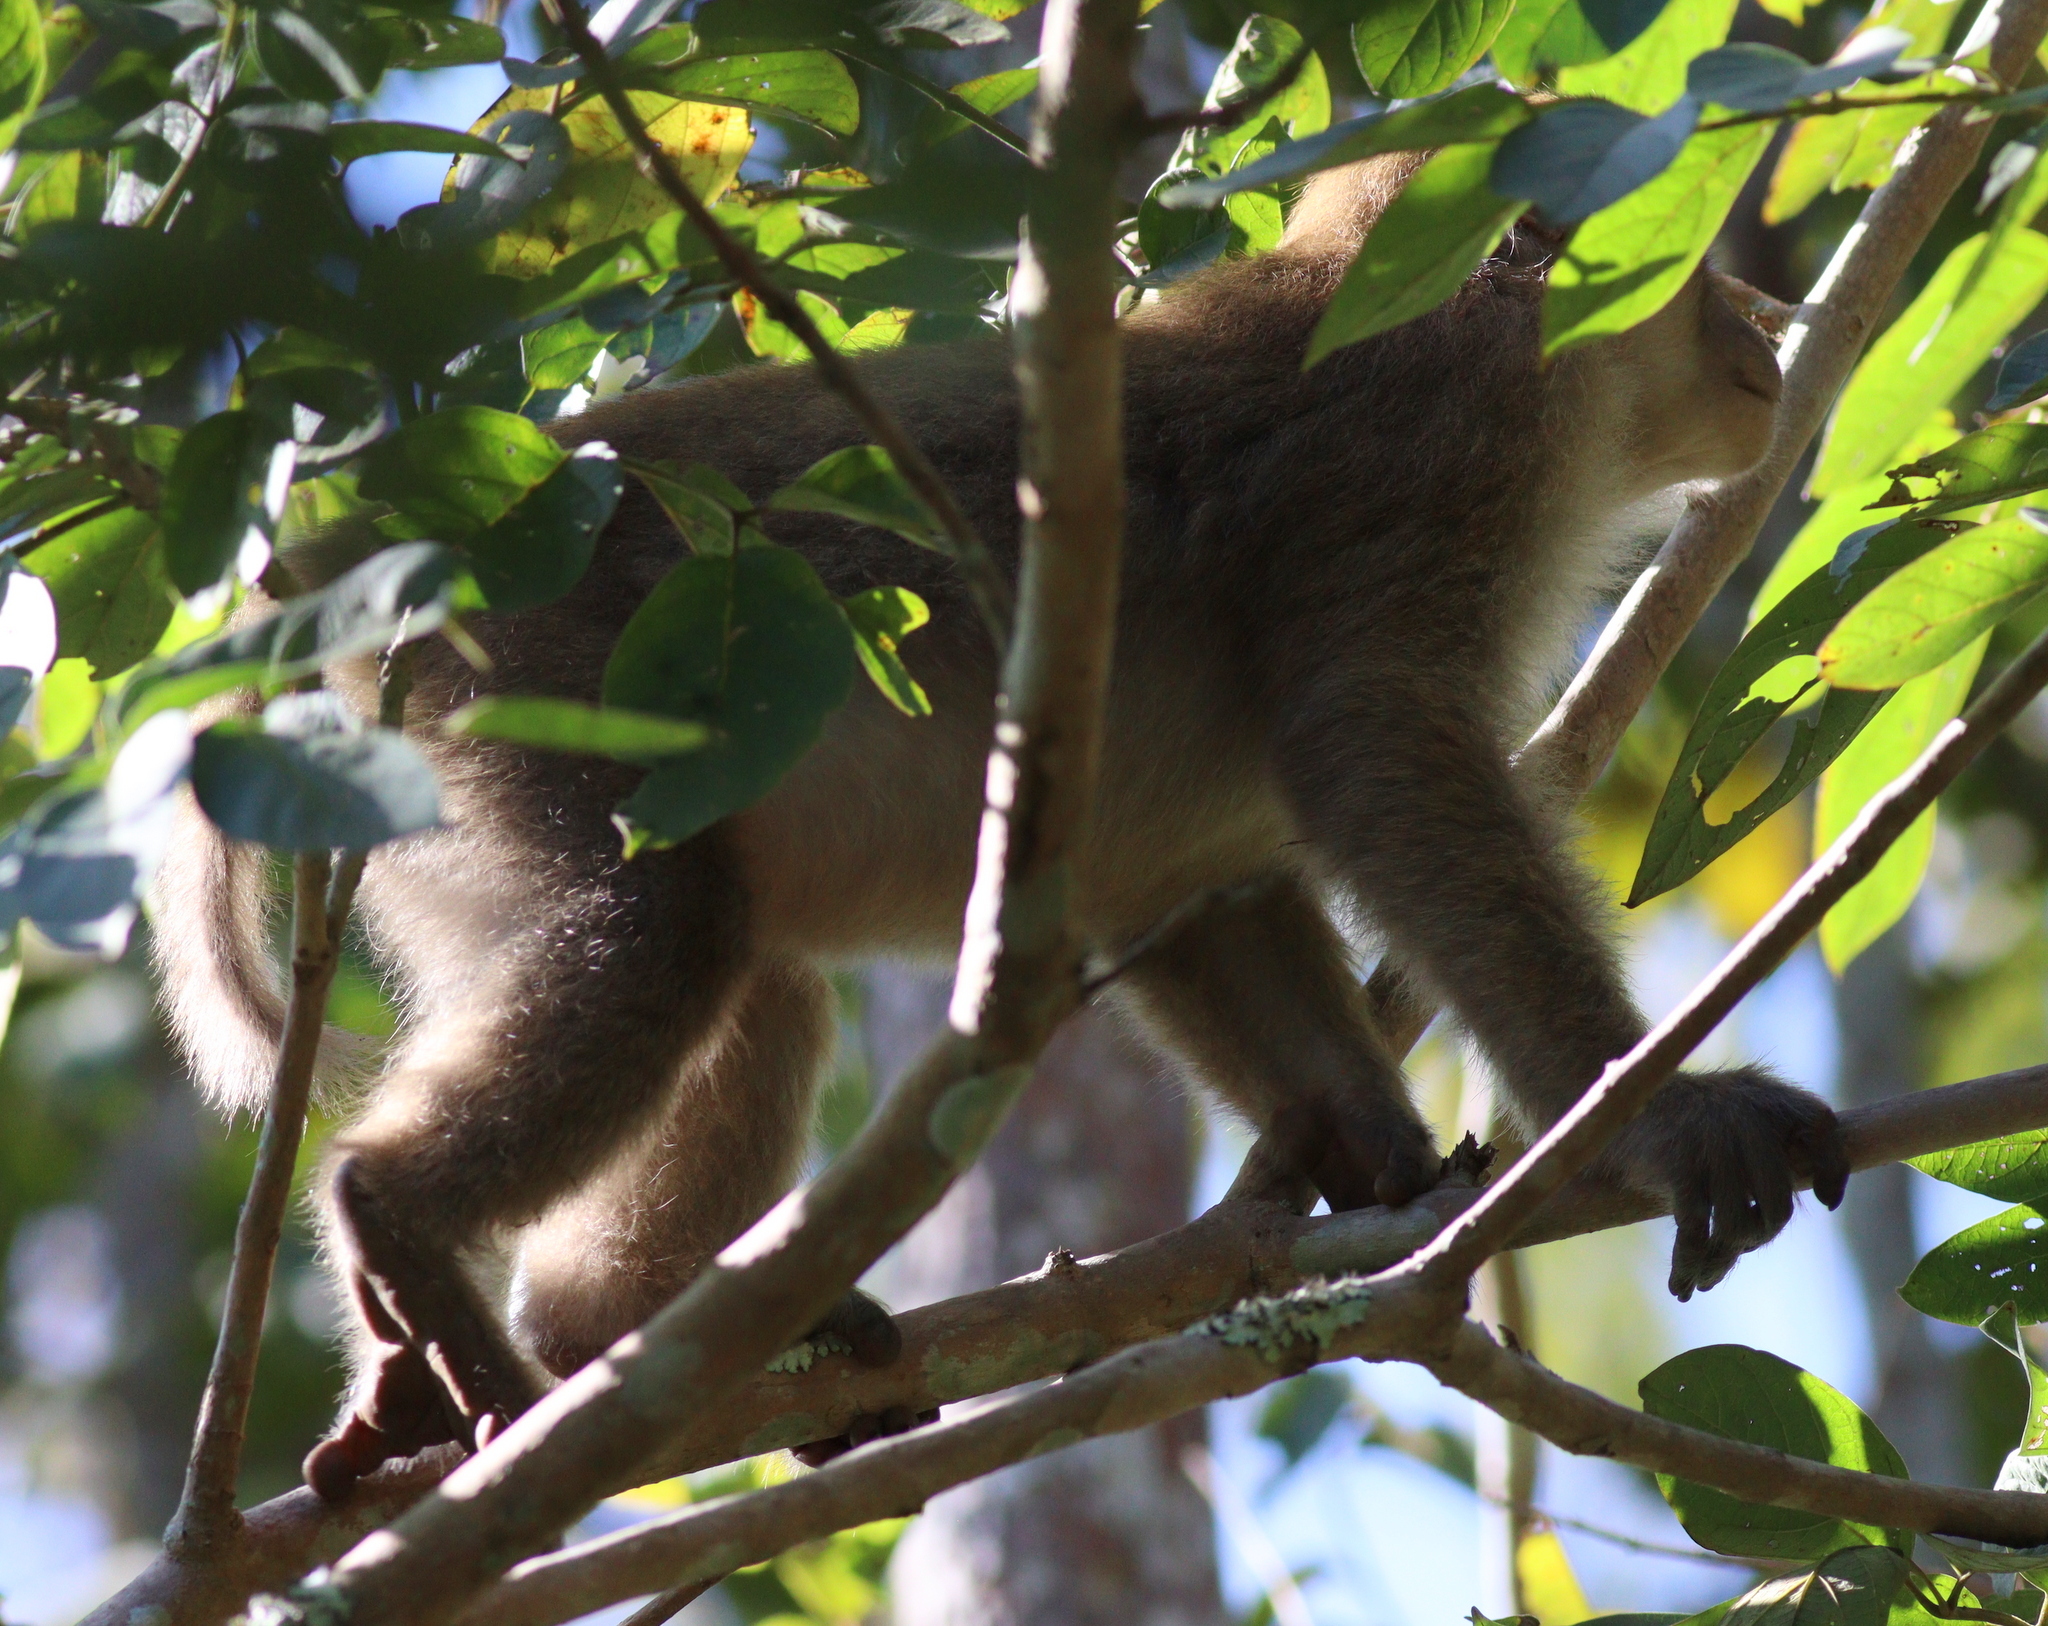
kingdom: Animalia
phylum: Chordata
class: Mammalia
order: Primates
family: Cercopithecidae
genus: Macaca
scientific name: Macaca assamensis
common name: Assam macaque
